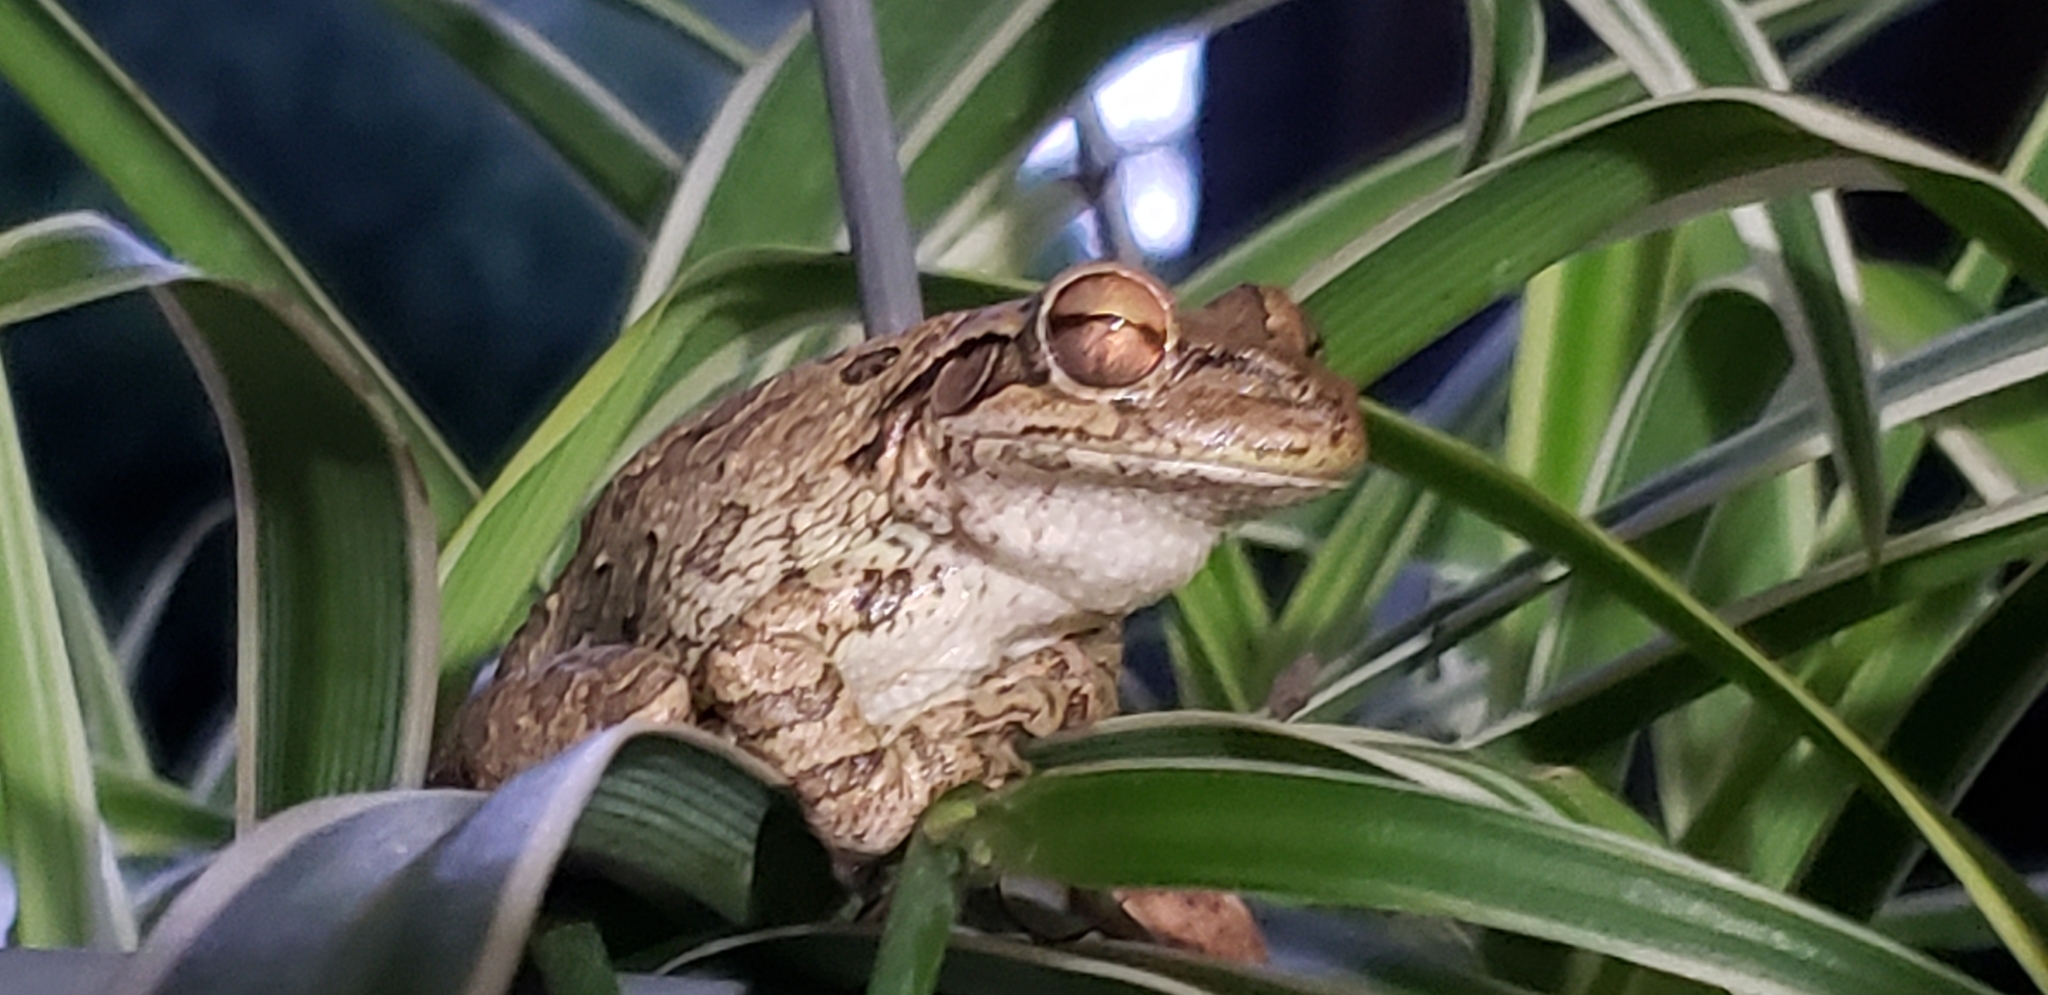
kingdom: Animalia
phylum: Chordata
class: Amphibia
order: Anura
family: Hylidae
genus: Osteopilus
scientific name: Osteopilus septentrionalis
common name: Cuban treefrog
